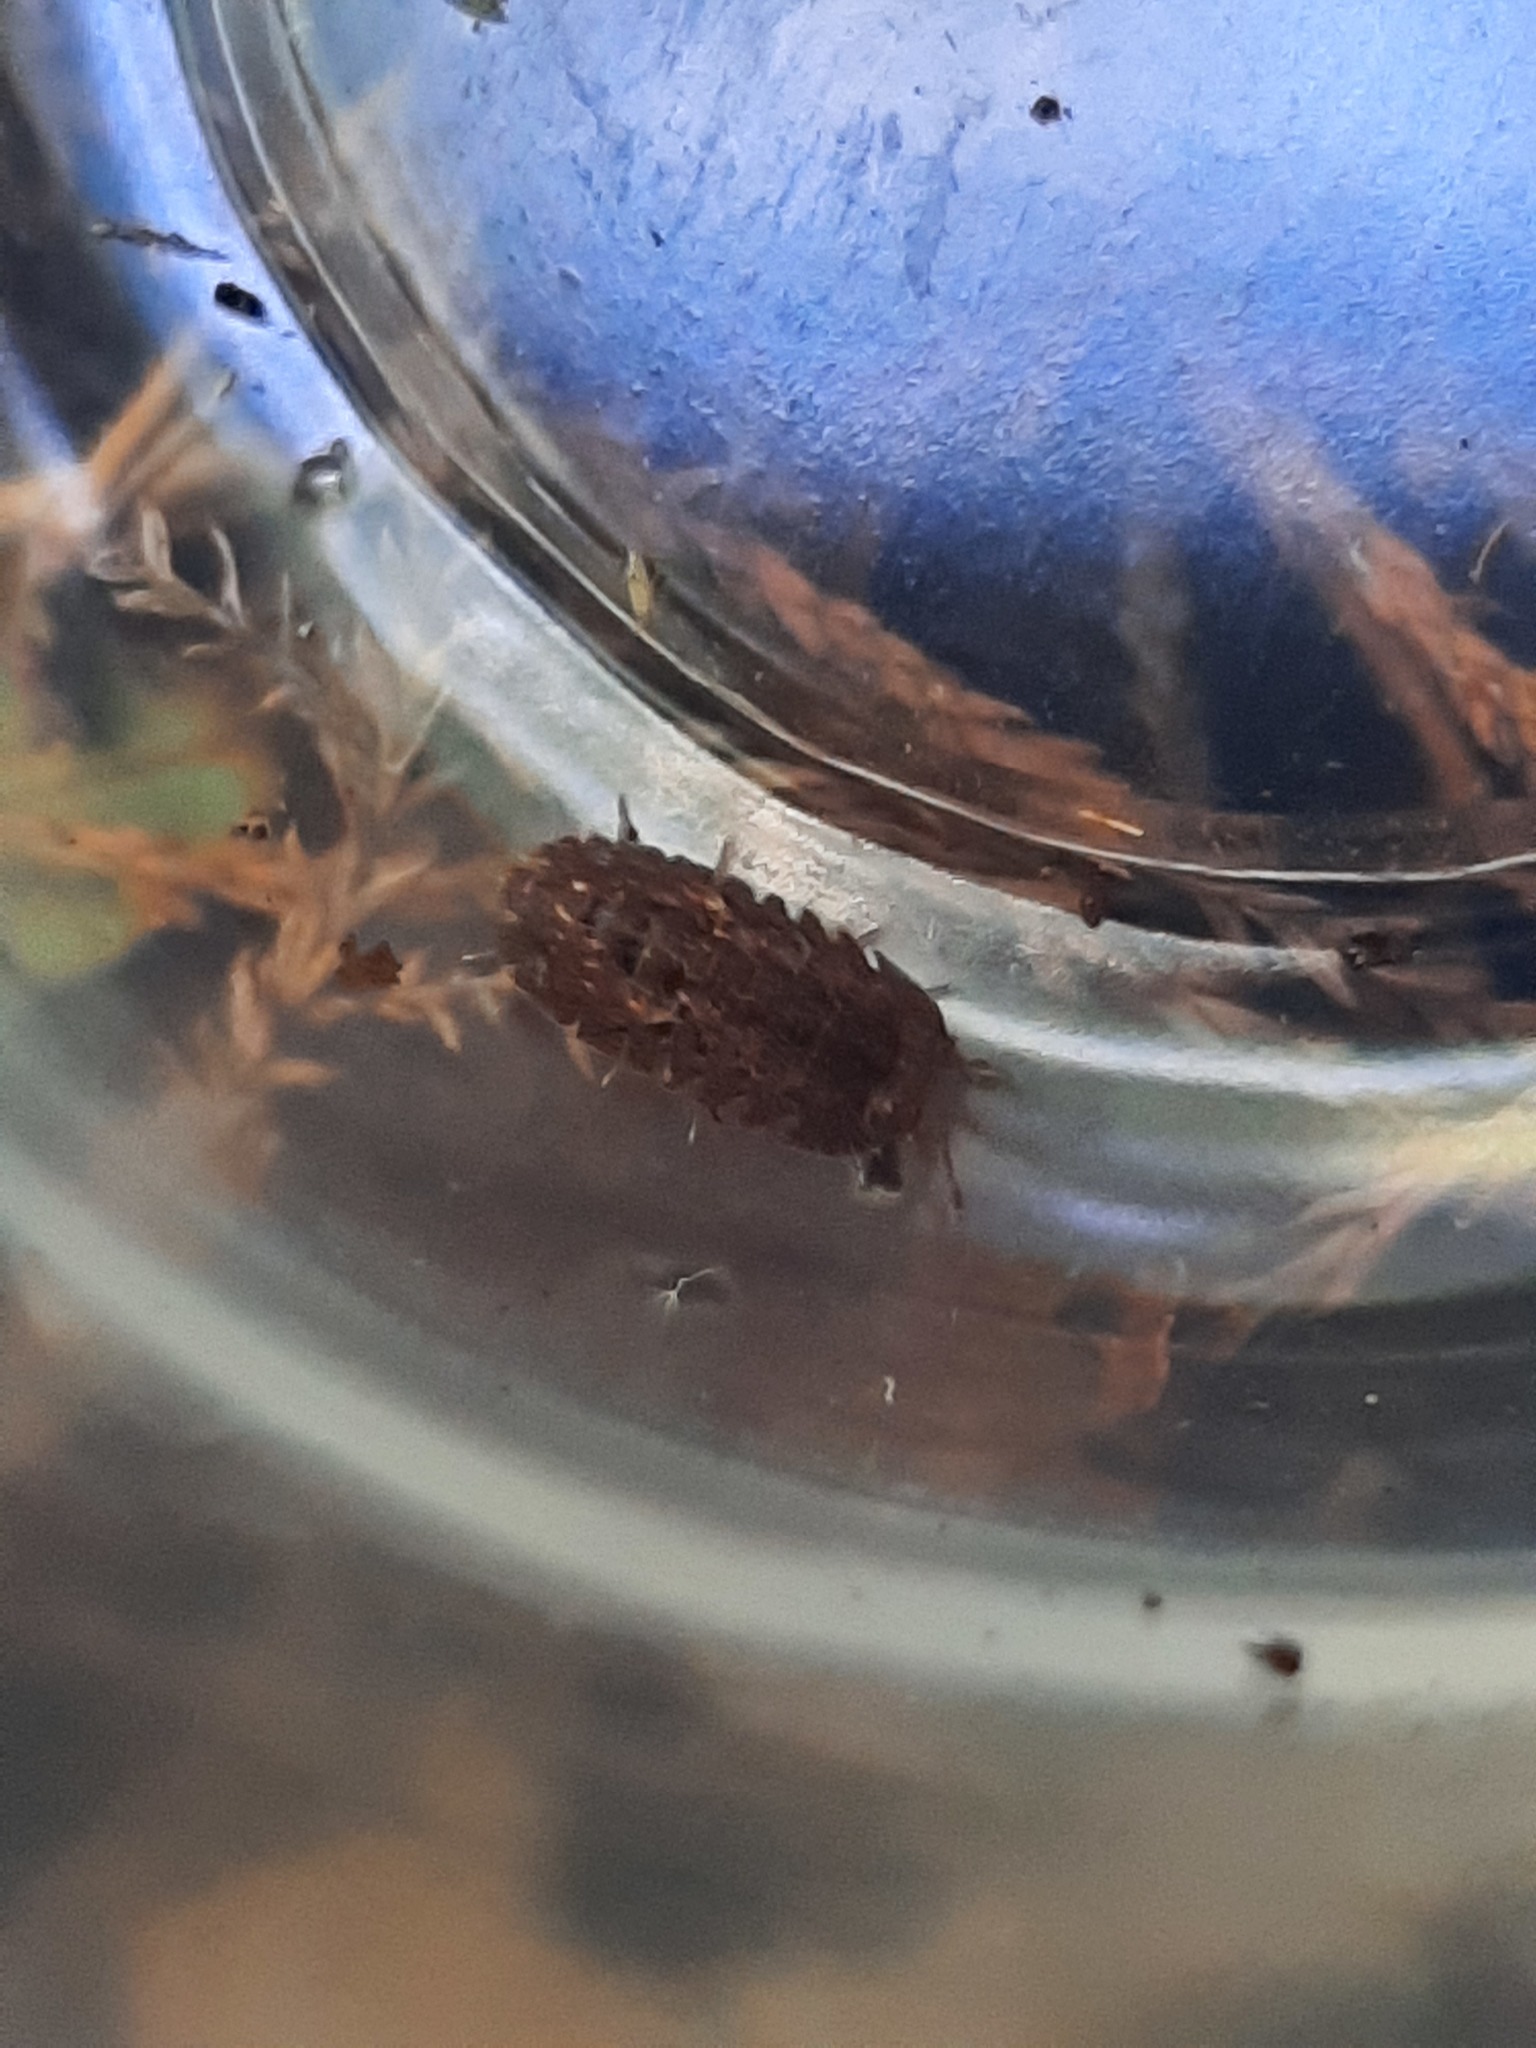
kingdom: Animalia
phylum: Arthropoda
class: Malacostraca
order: Isopoda
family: Armadillidae
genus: Cubaris
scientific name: Cubaris tarangensis
